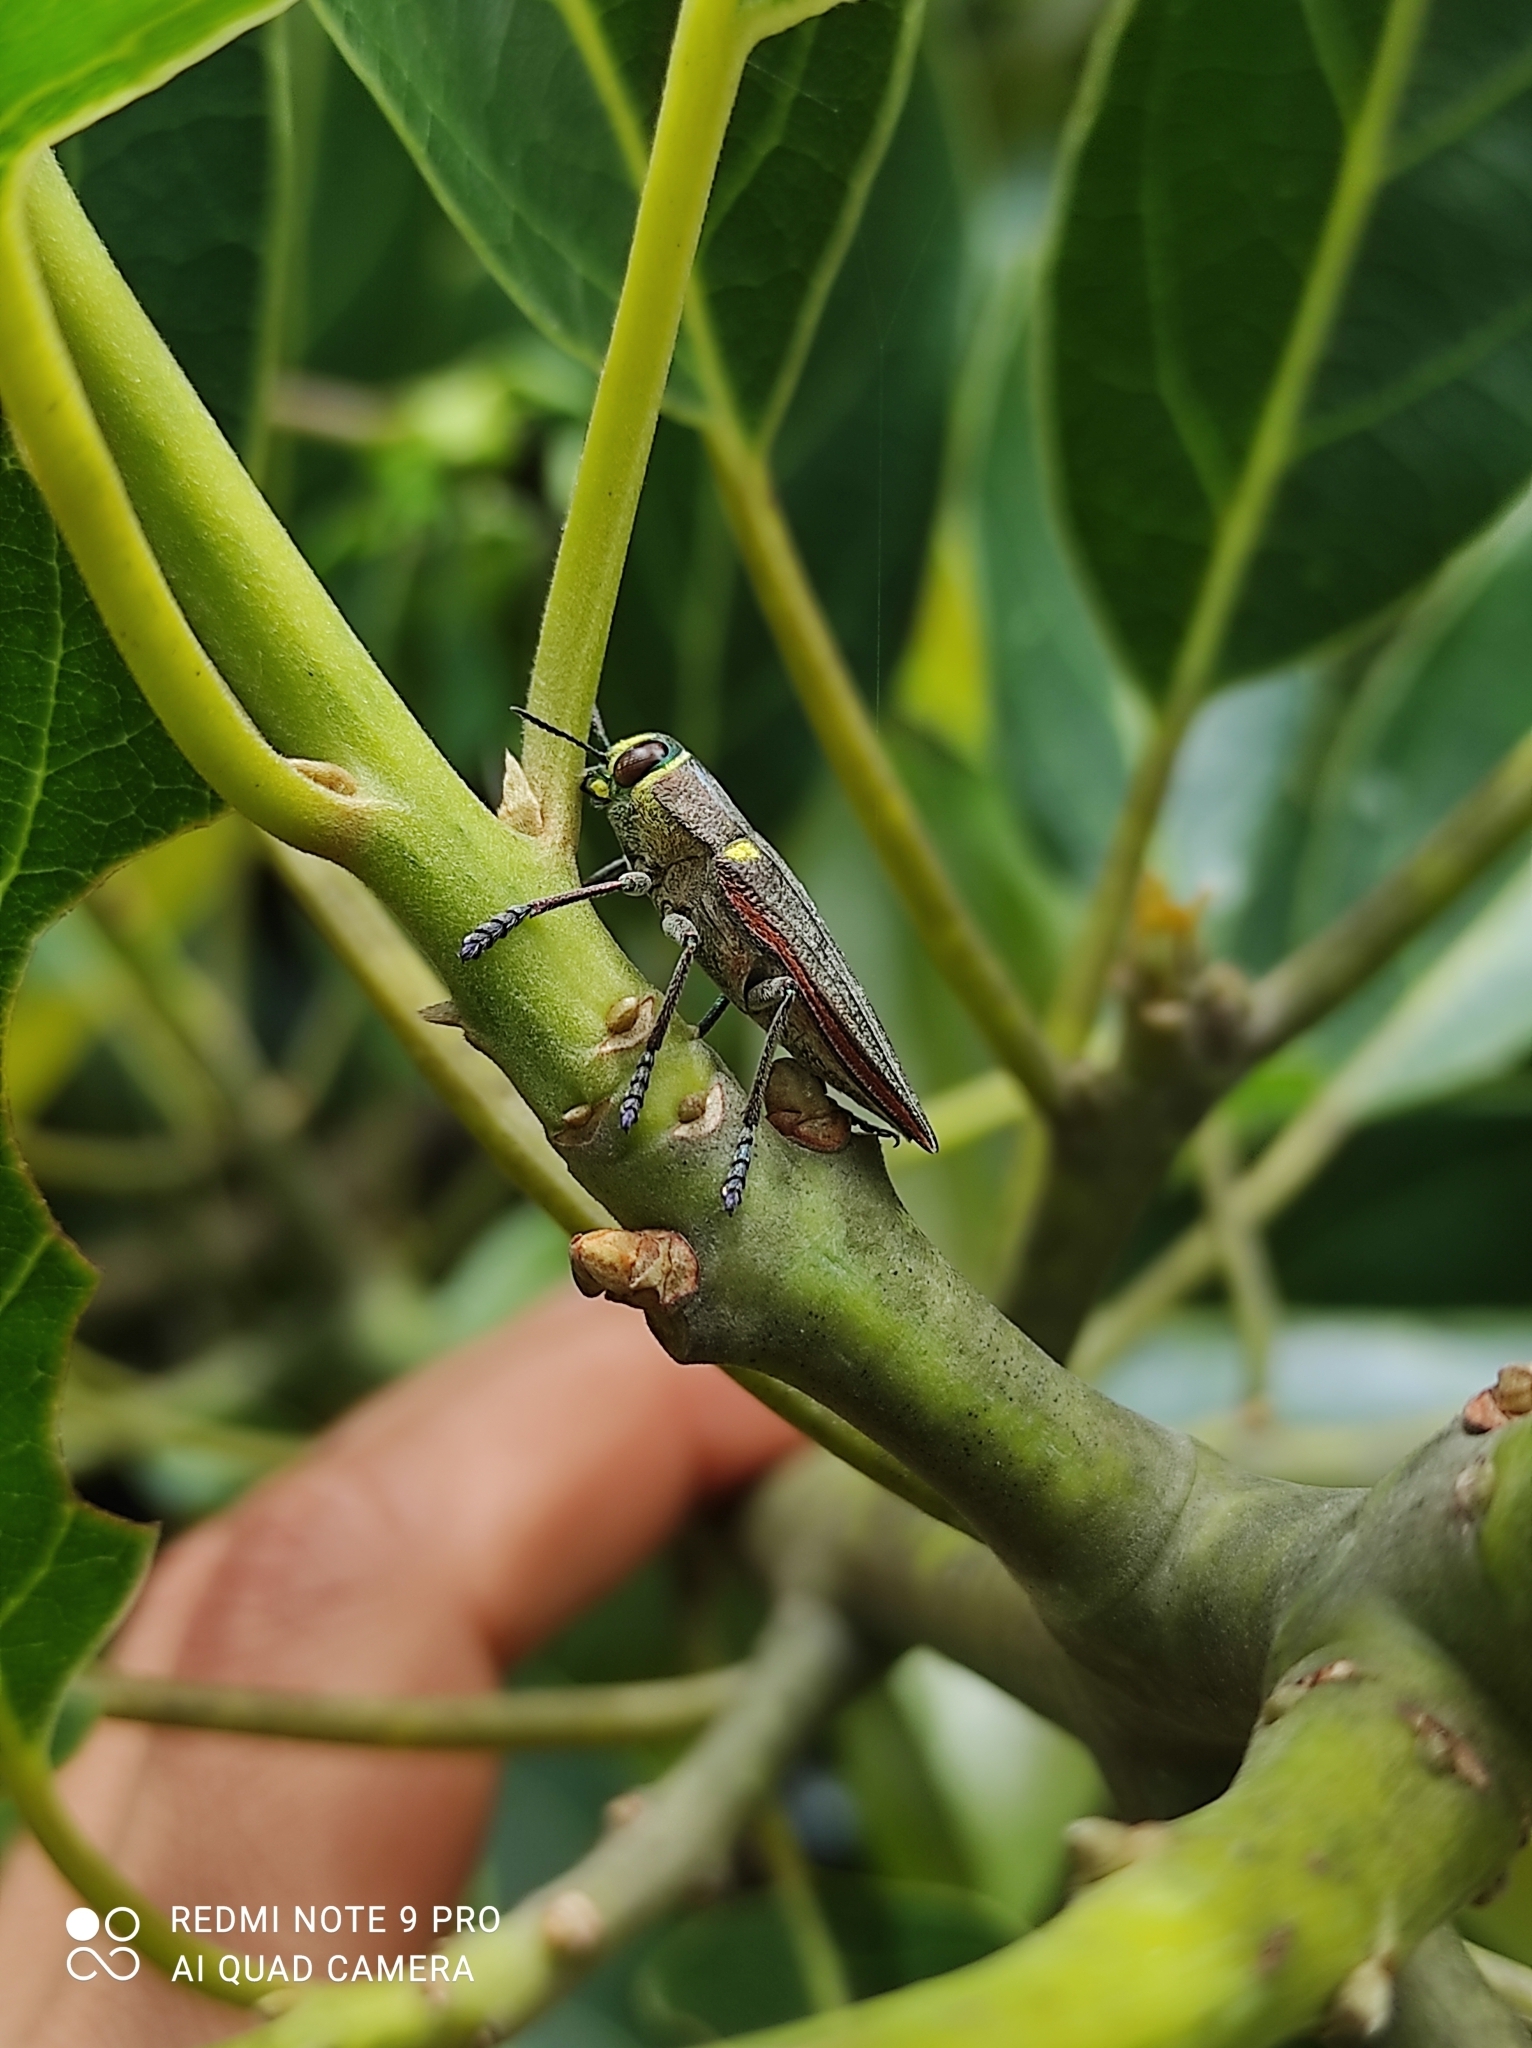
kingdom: Animalia
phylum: Arthropoda
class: Insecta
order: Coleoptera
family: Buprestidae
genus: Ectinogonia
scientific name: Ectinogonia melichari
